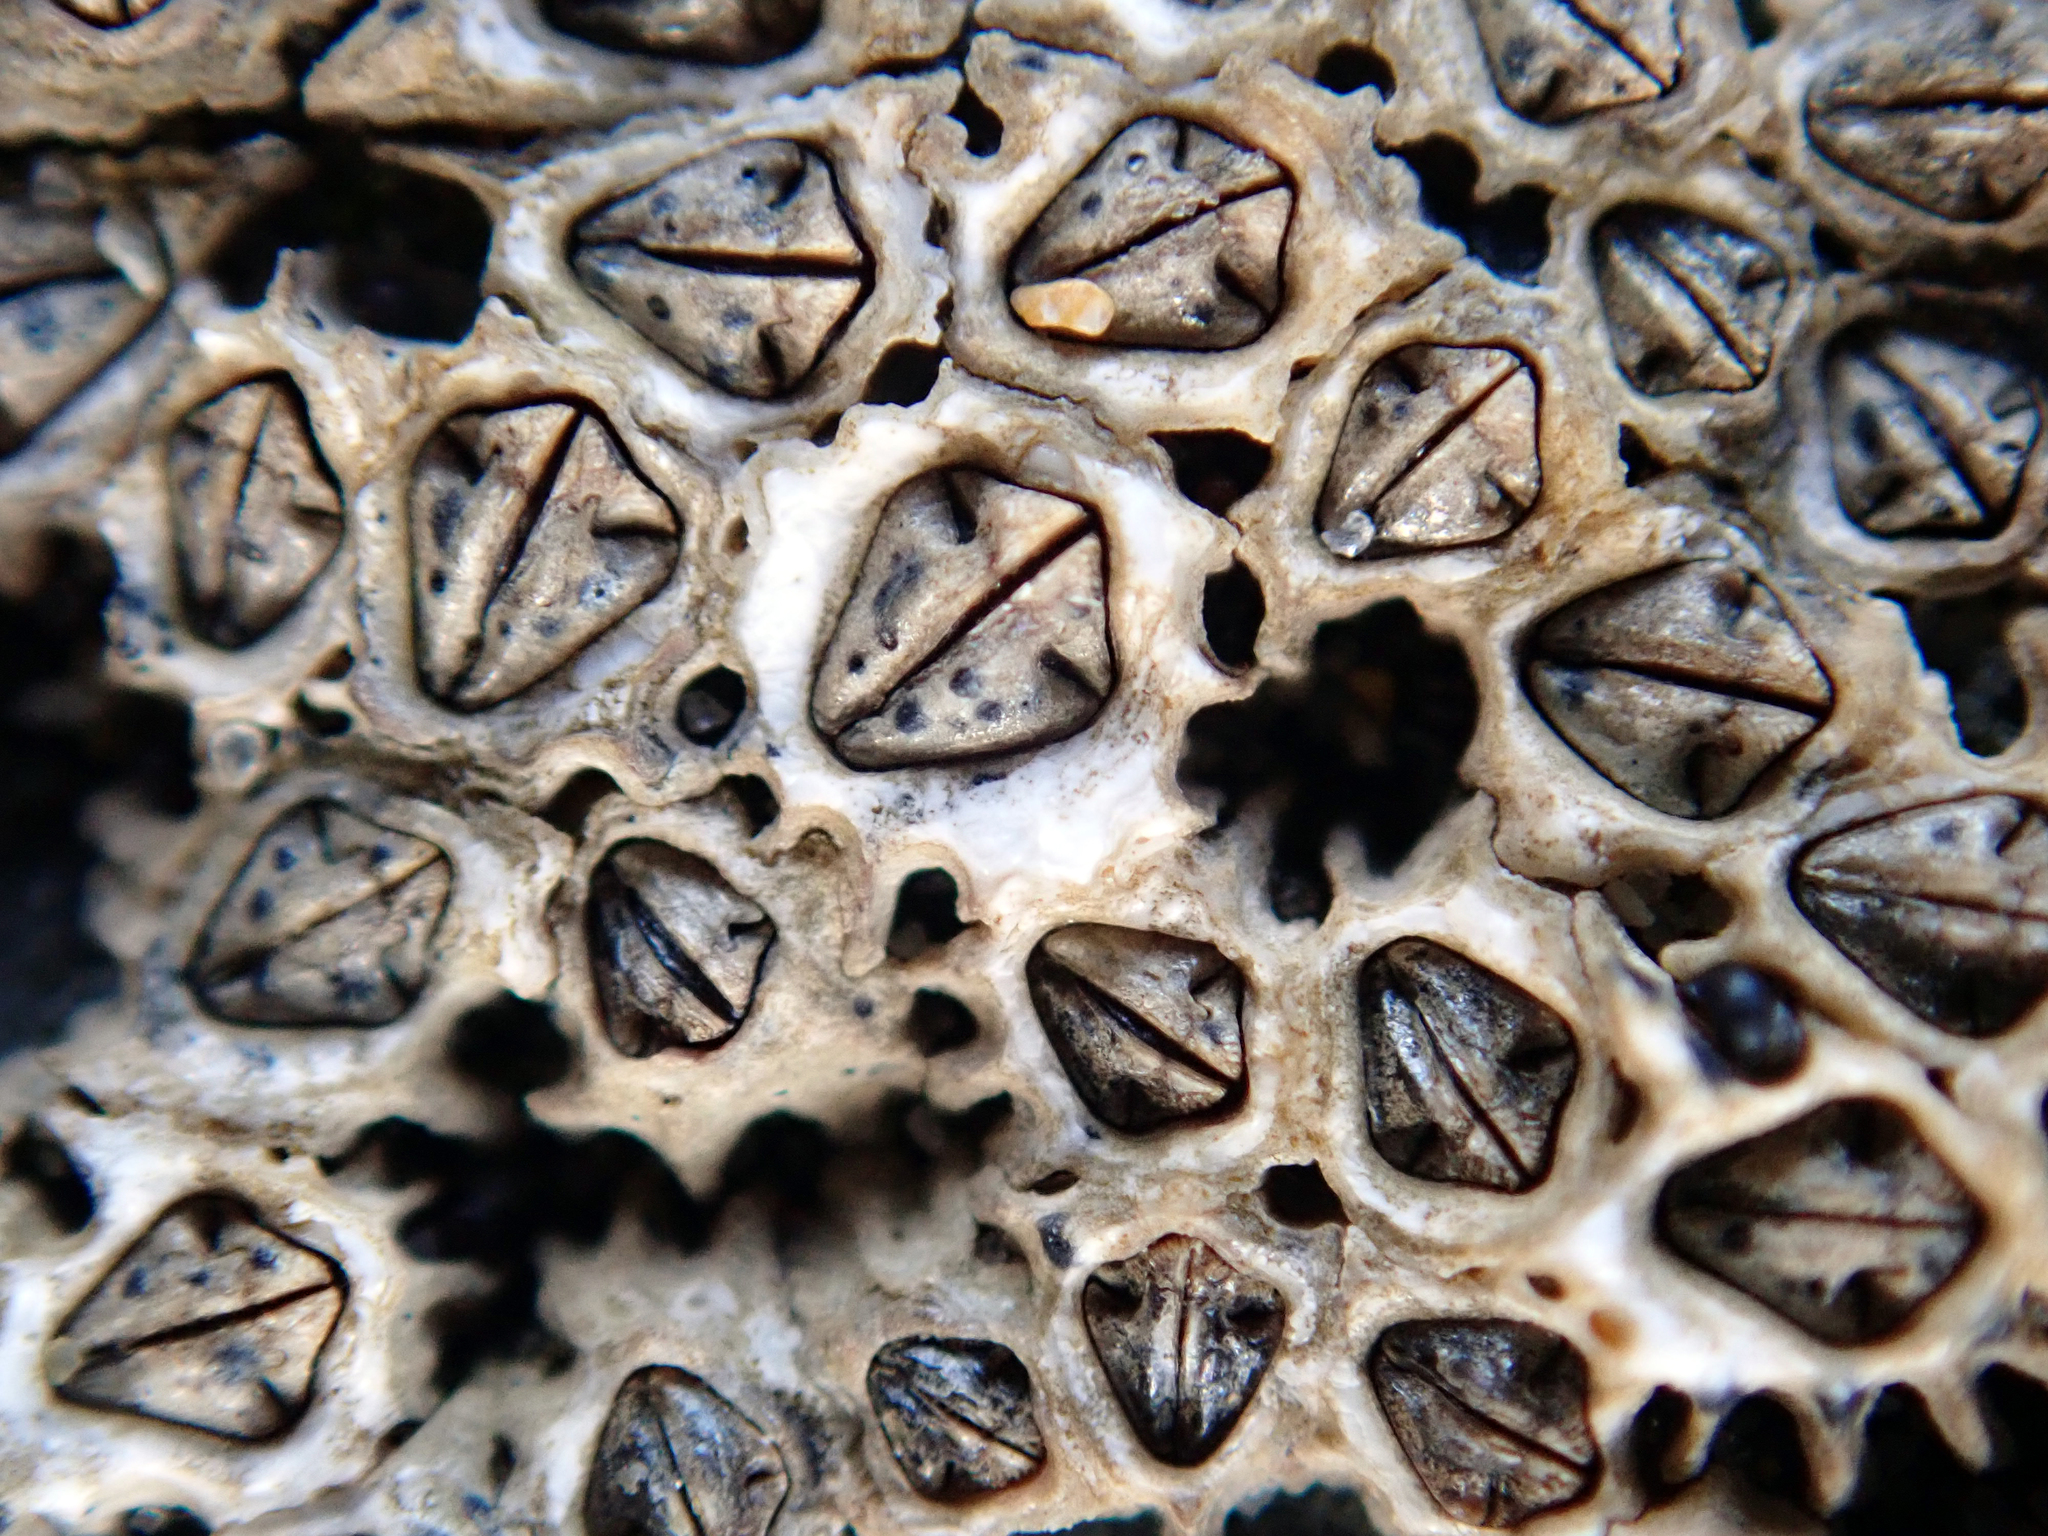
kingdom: Animalia
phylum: Arthropoda
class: Maxillopoda
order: Sessilia
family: Chthamalidae
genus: Chamaesipho
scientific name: Chamaesipho columna
